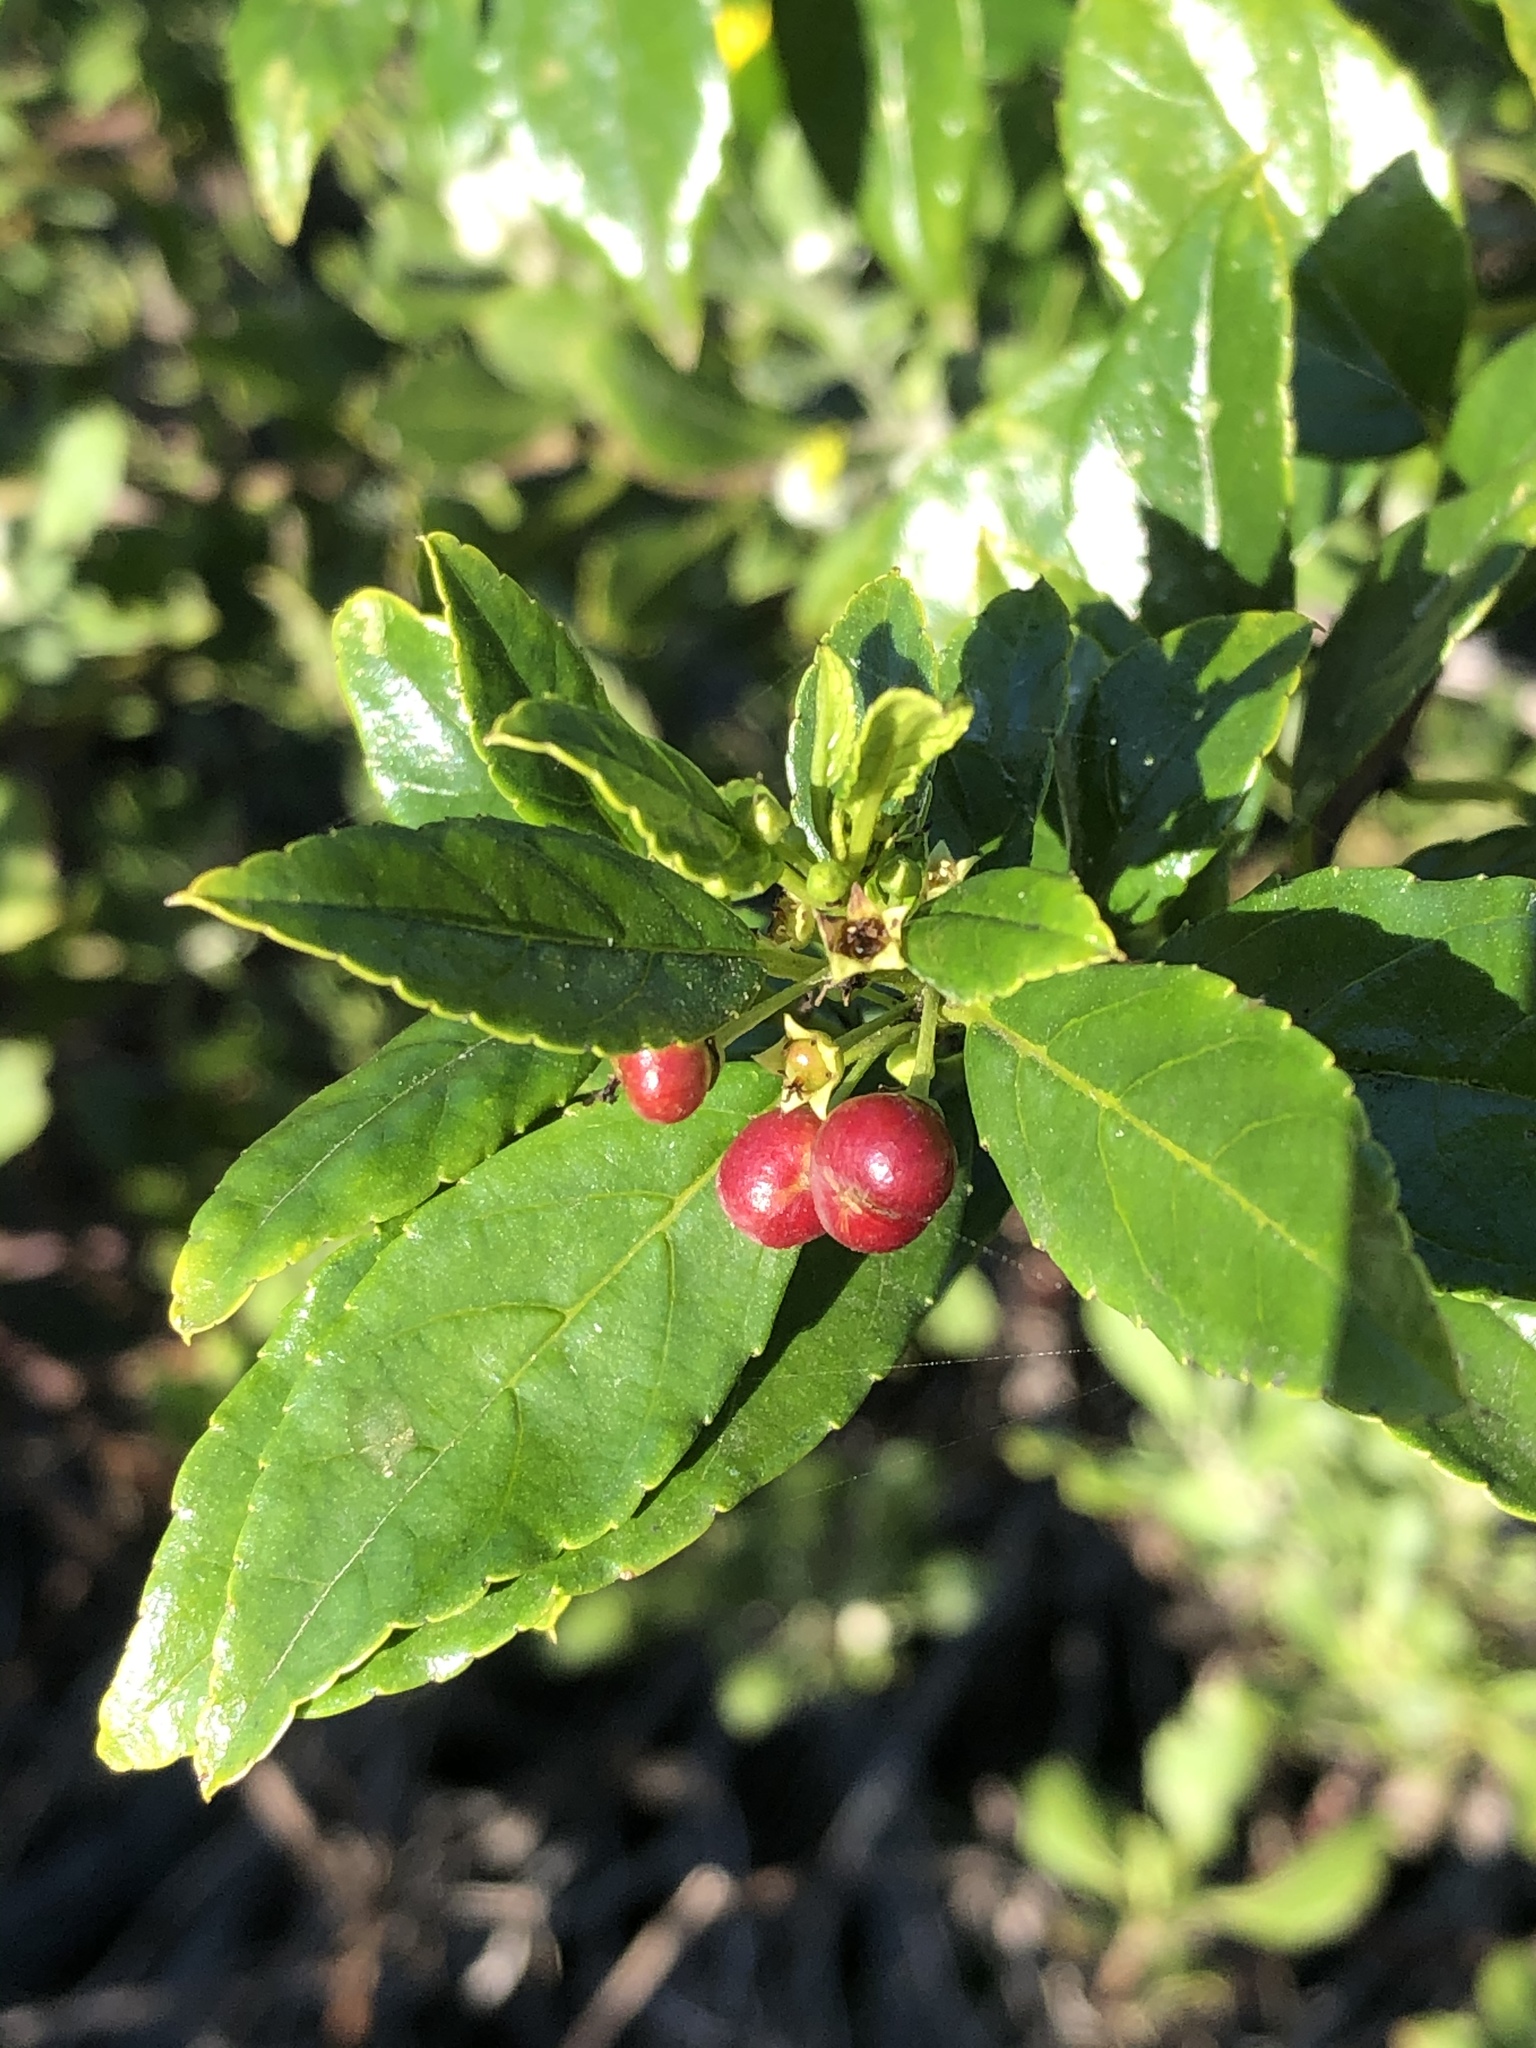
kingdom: Plantae
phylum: Tracheophyta
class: Magnoliopsida
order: Rosales
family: Rhamnaceae
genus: Rhamnus
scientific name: Rhamnus prinoides
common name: Dogwood
